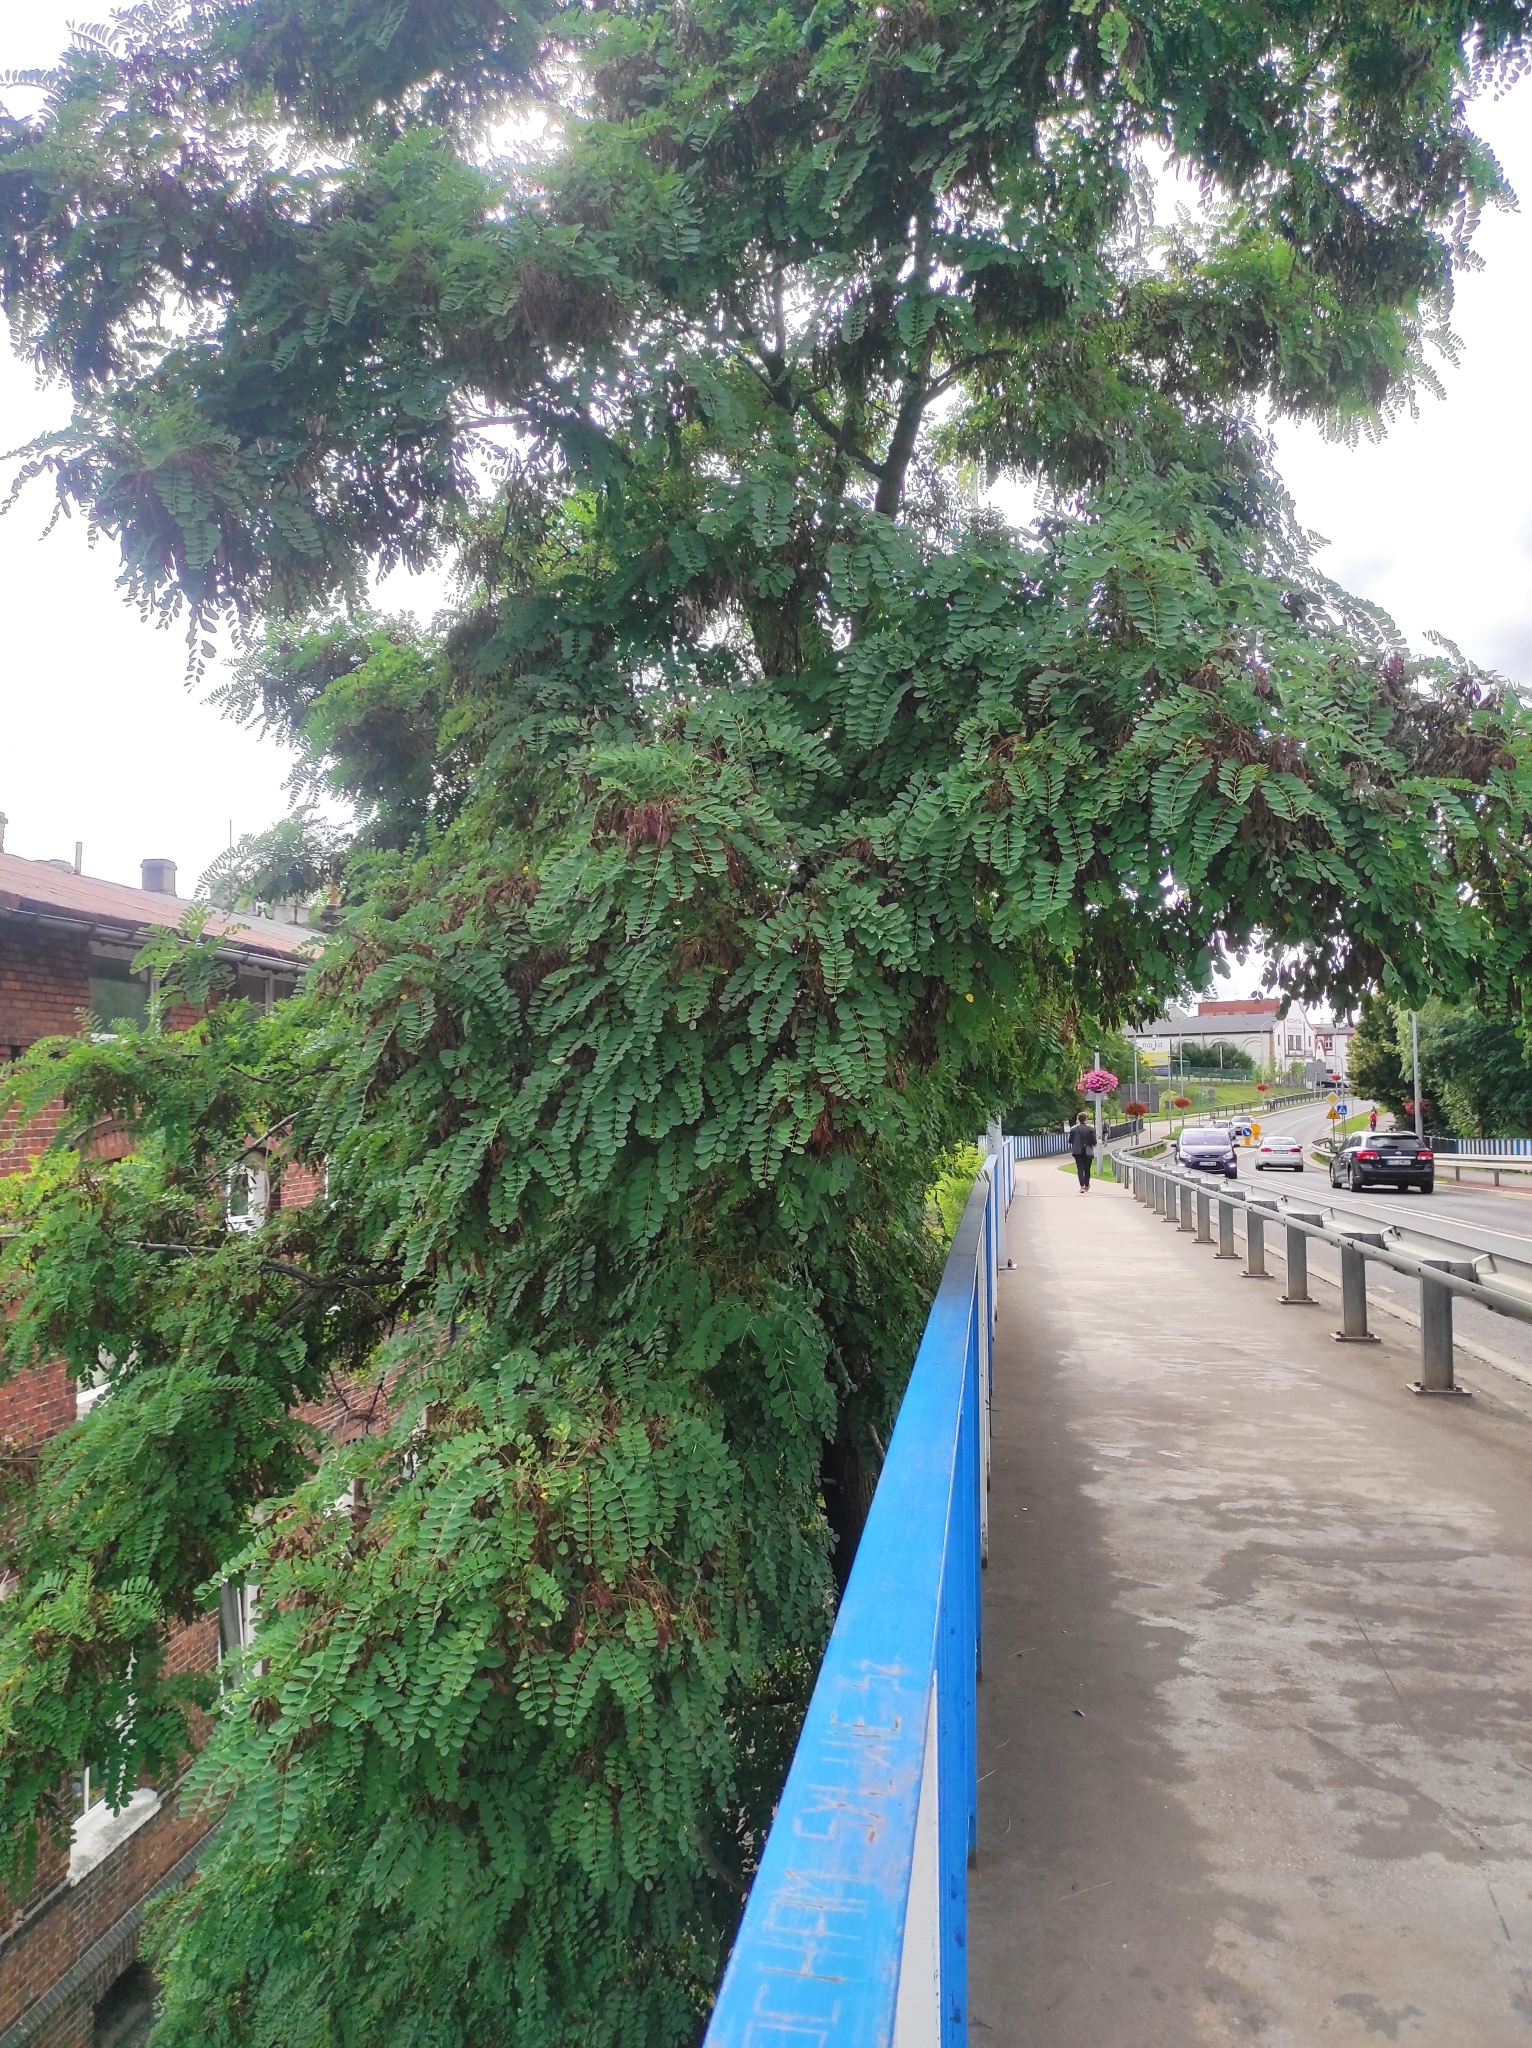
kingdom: Plantae
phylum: Tracheophyta
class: Magnoliopsida
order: Fabales
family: Fabaceae
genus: Robinia
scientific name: Robinia pseudoacacia
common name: Black locust
